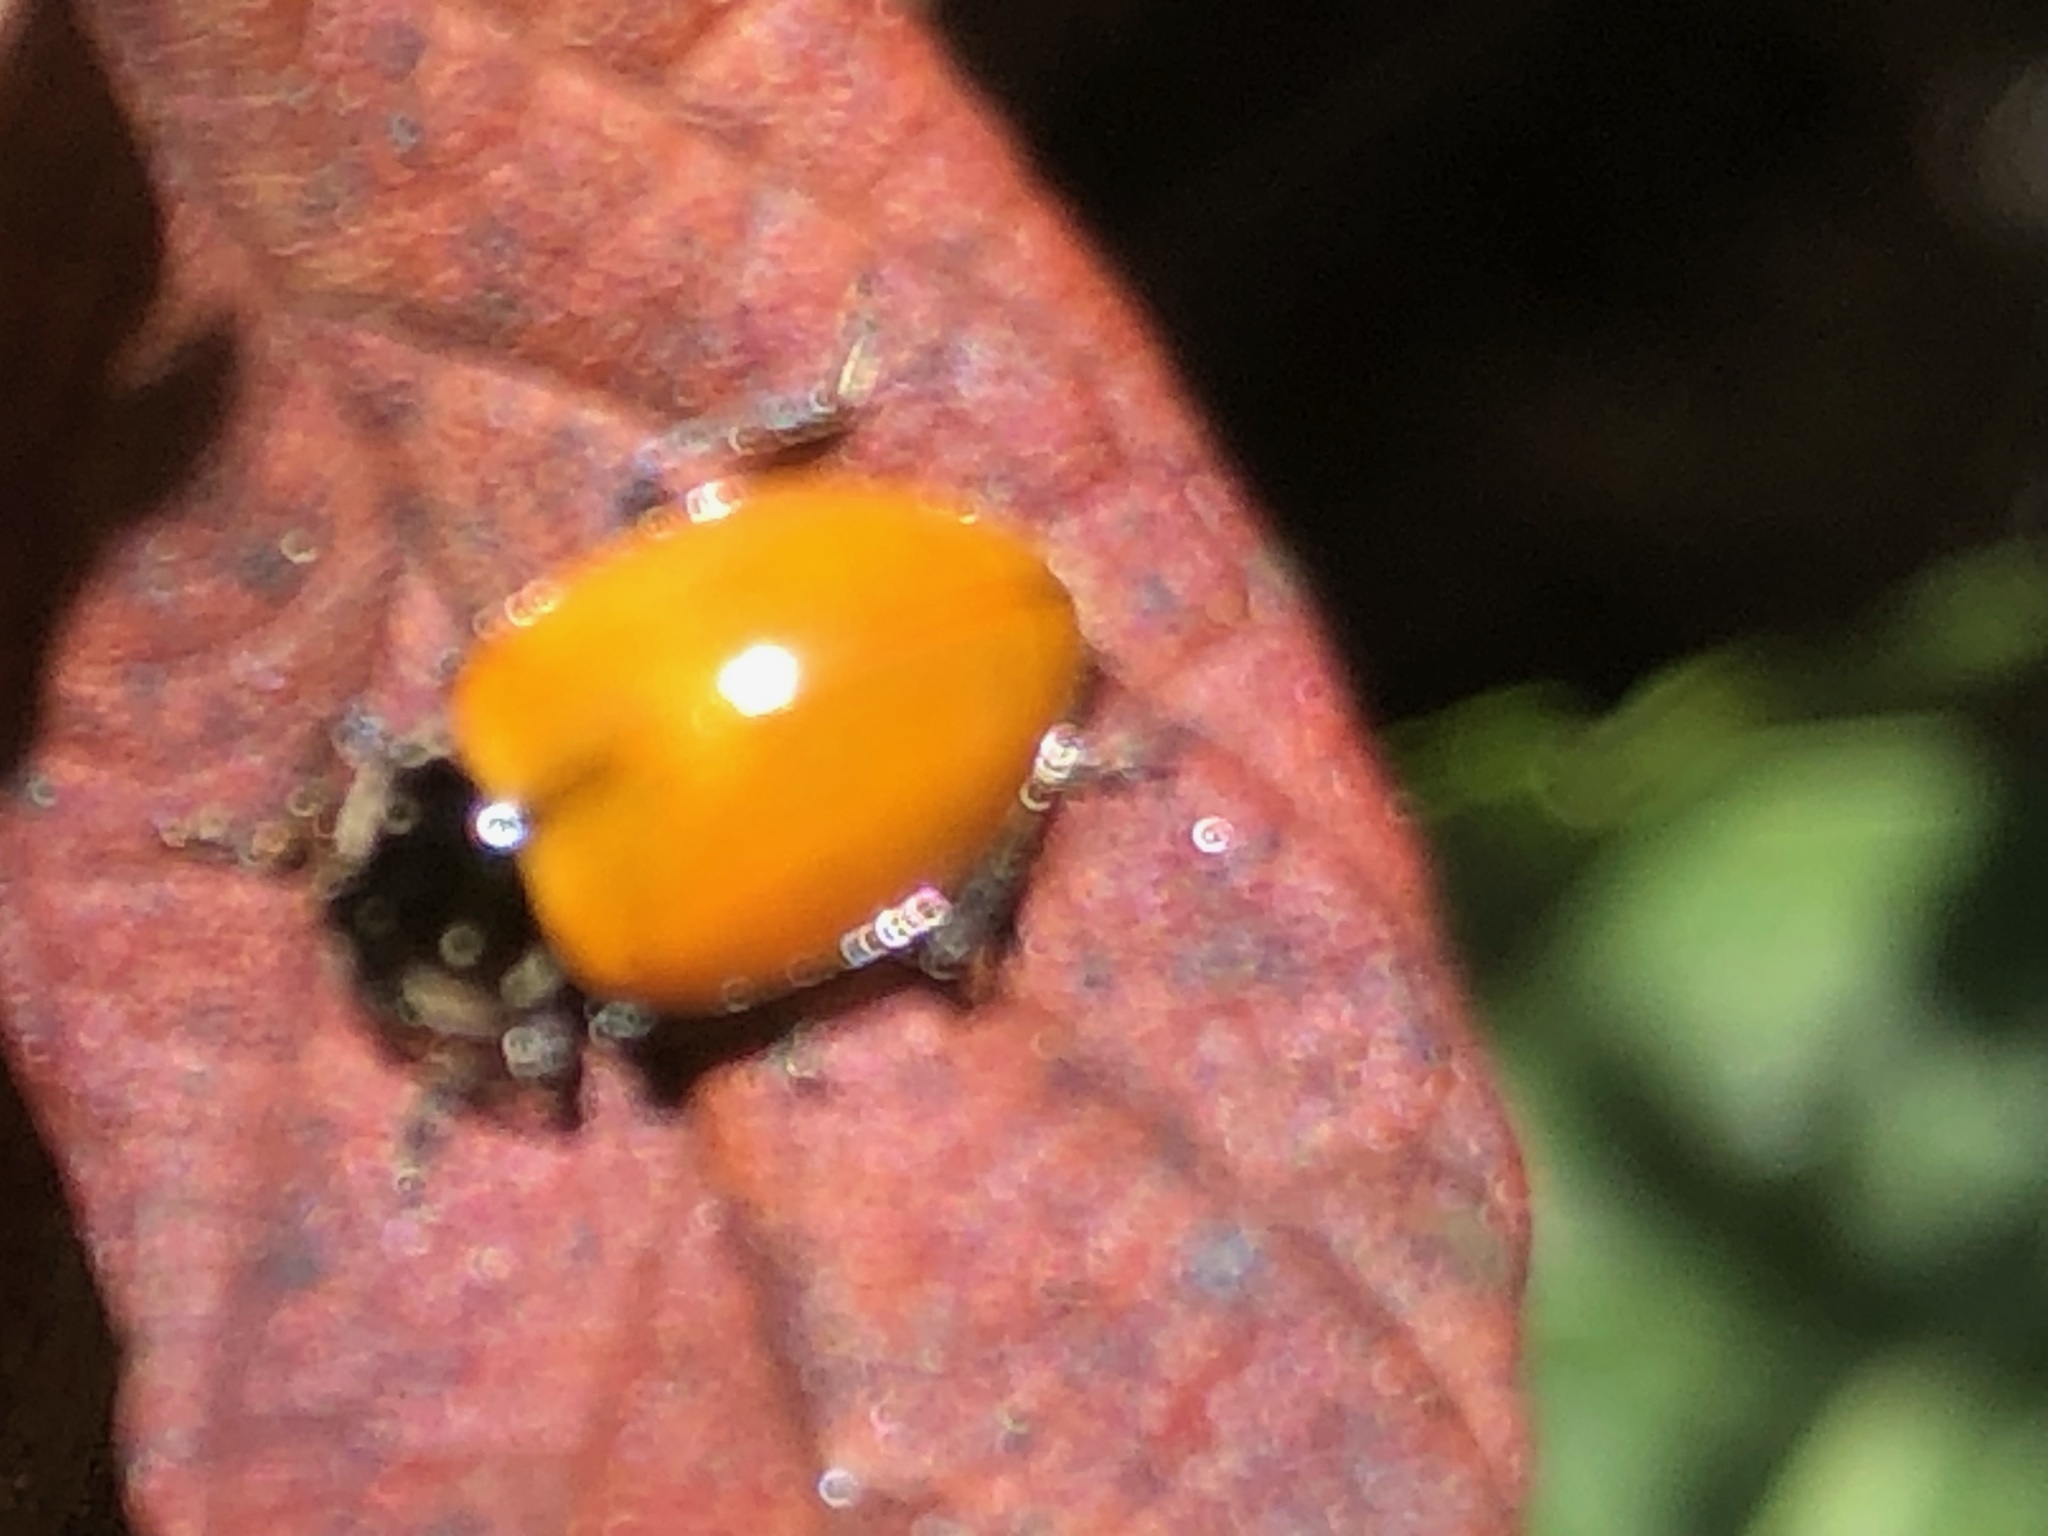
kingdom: Animalia
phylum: Arthropoda
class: Insecta
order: Coleoptera
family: Coccinellidae
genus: Hippodamia
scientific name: Hippodamia quinquesignata
